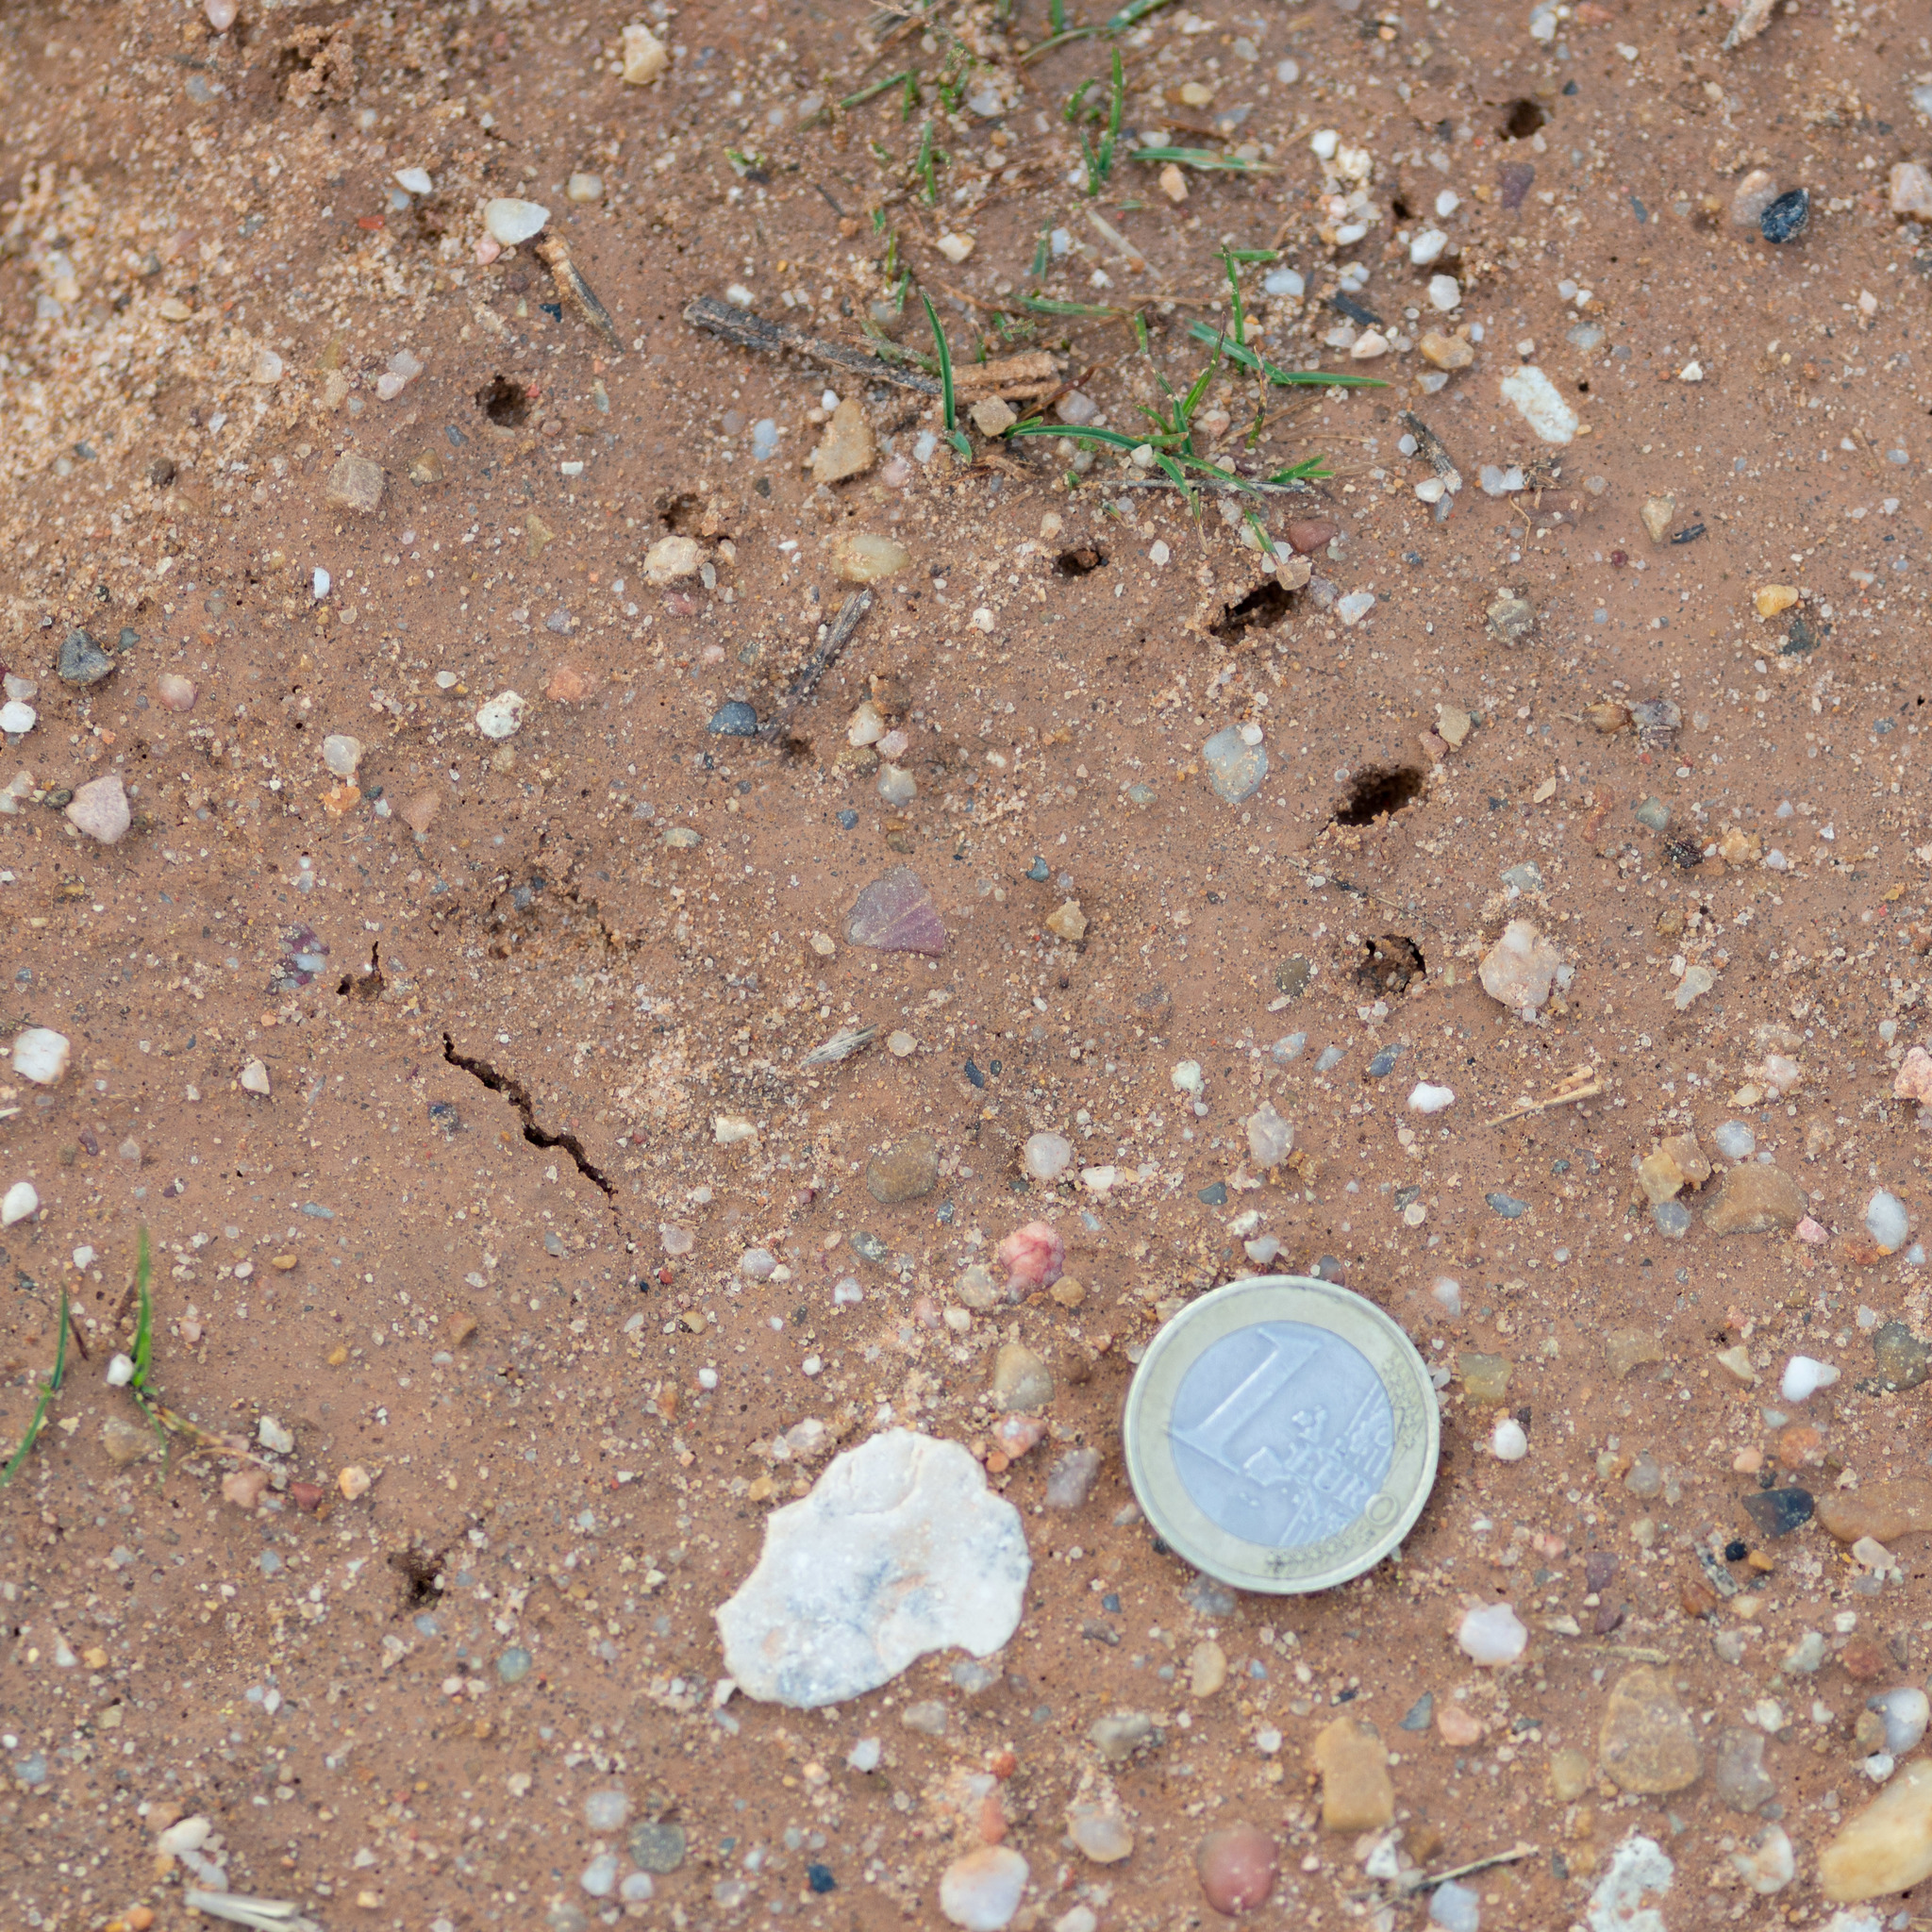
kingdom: Animalia
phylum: Chordata
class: Mammalia
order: Carnivora
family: Mustelidae
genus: Meles
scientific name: Meles meles
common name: Eurasian badger
